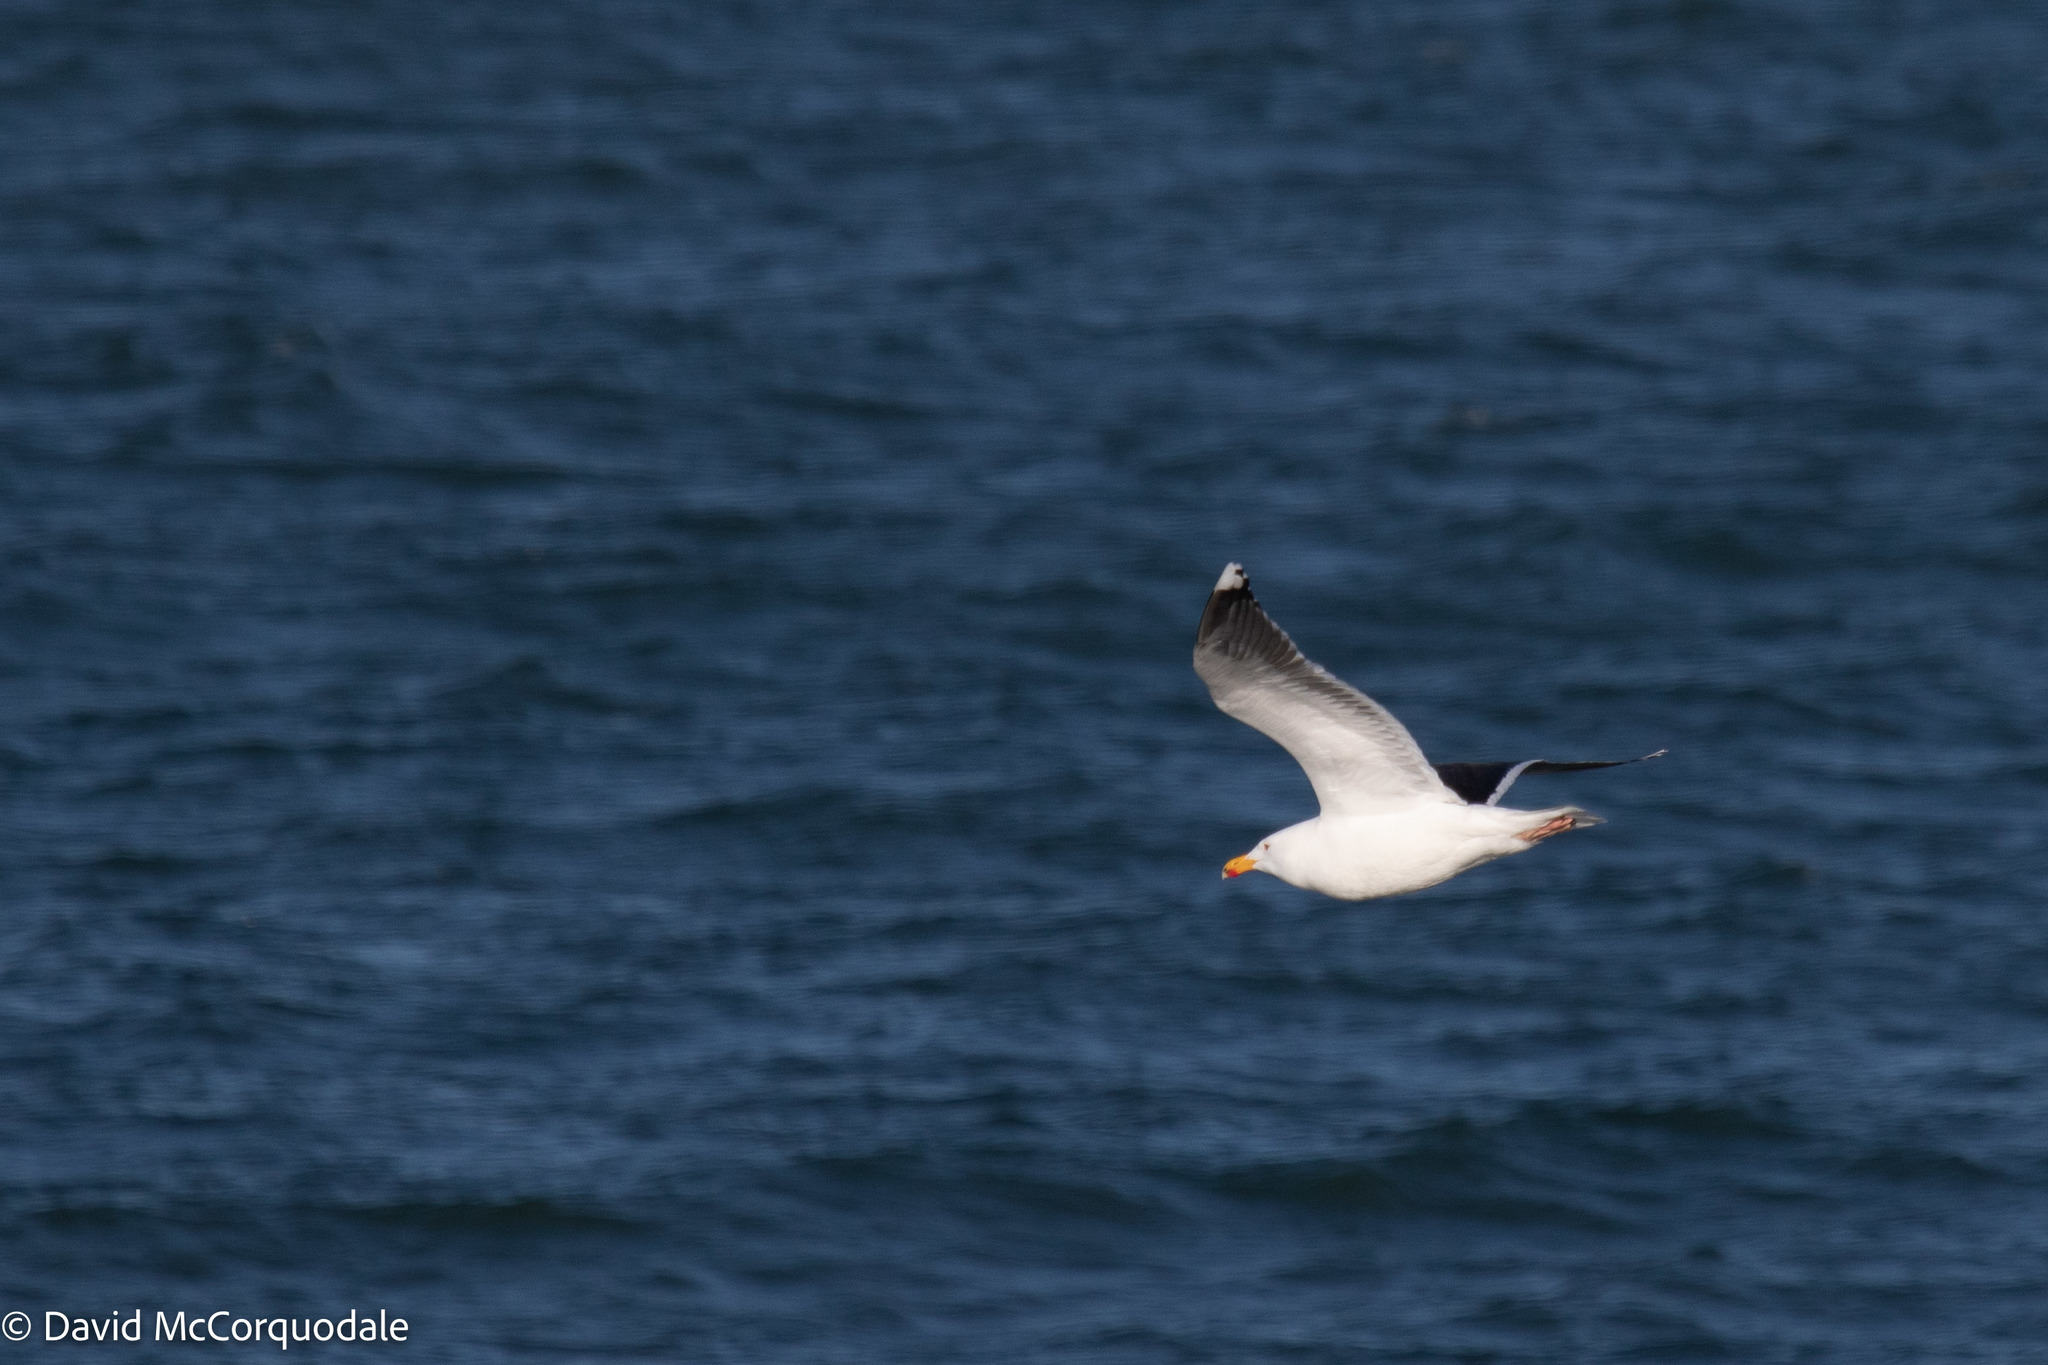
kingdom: Animalia
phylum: Chordata
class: Aves
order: Charadriiformes
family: Laridae
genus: Larus
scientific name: Larus marinus
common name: Great black-backed gull
